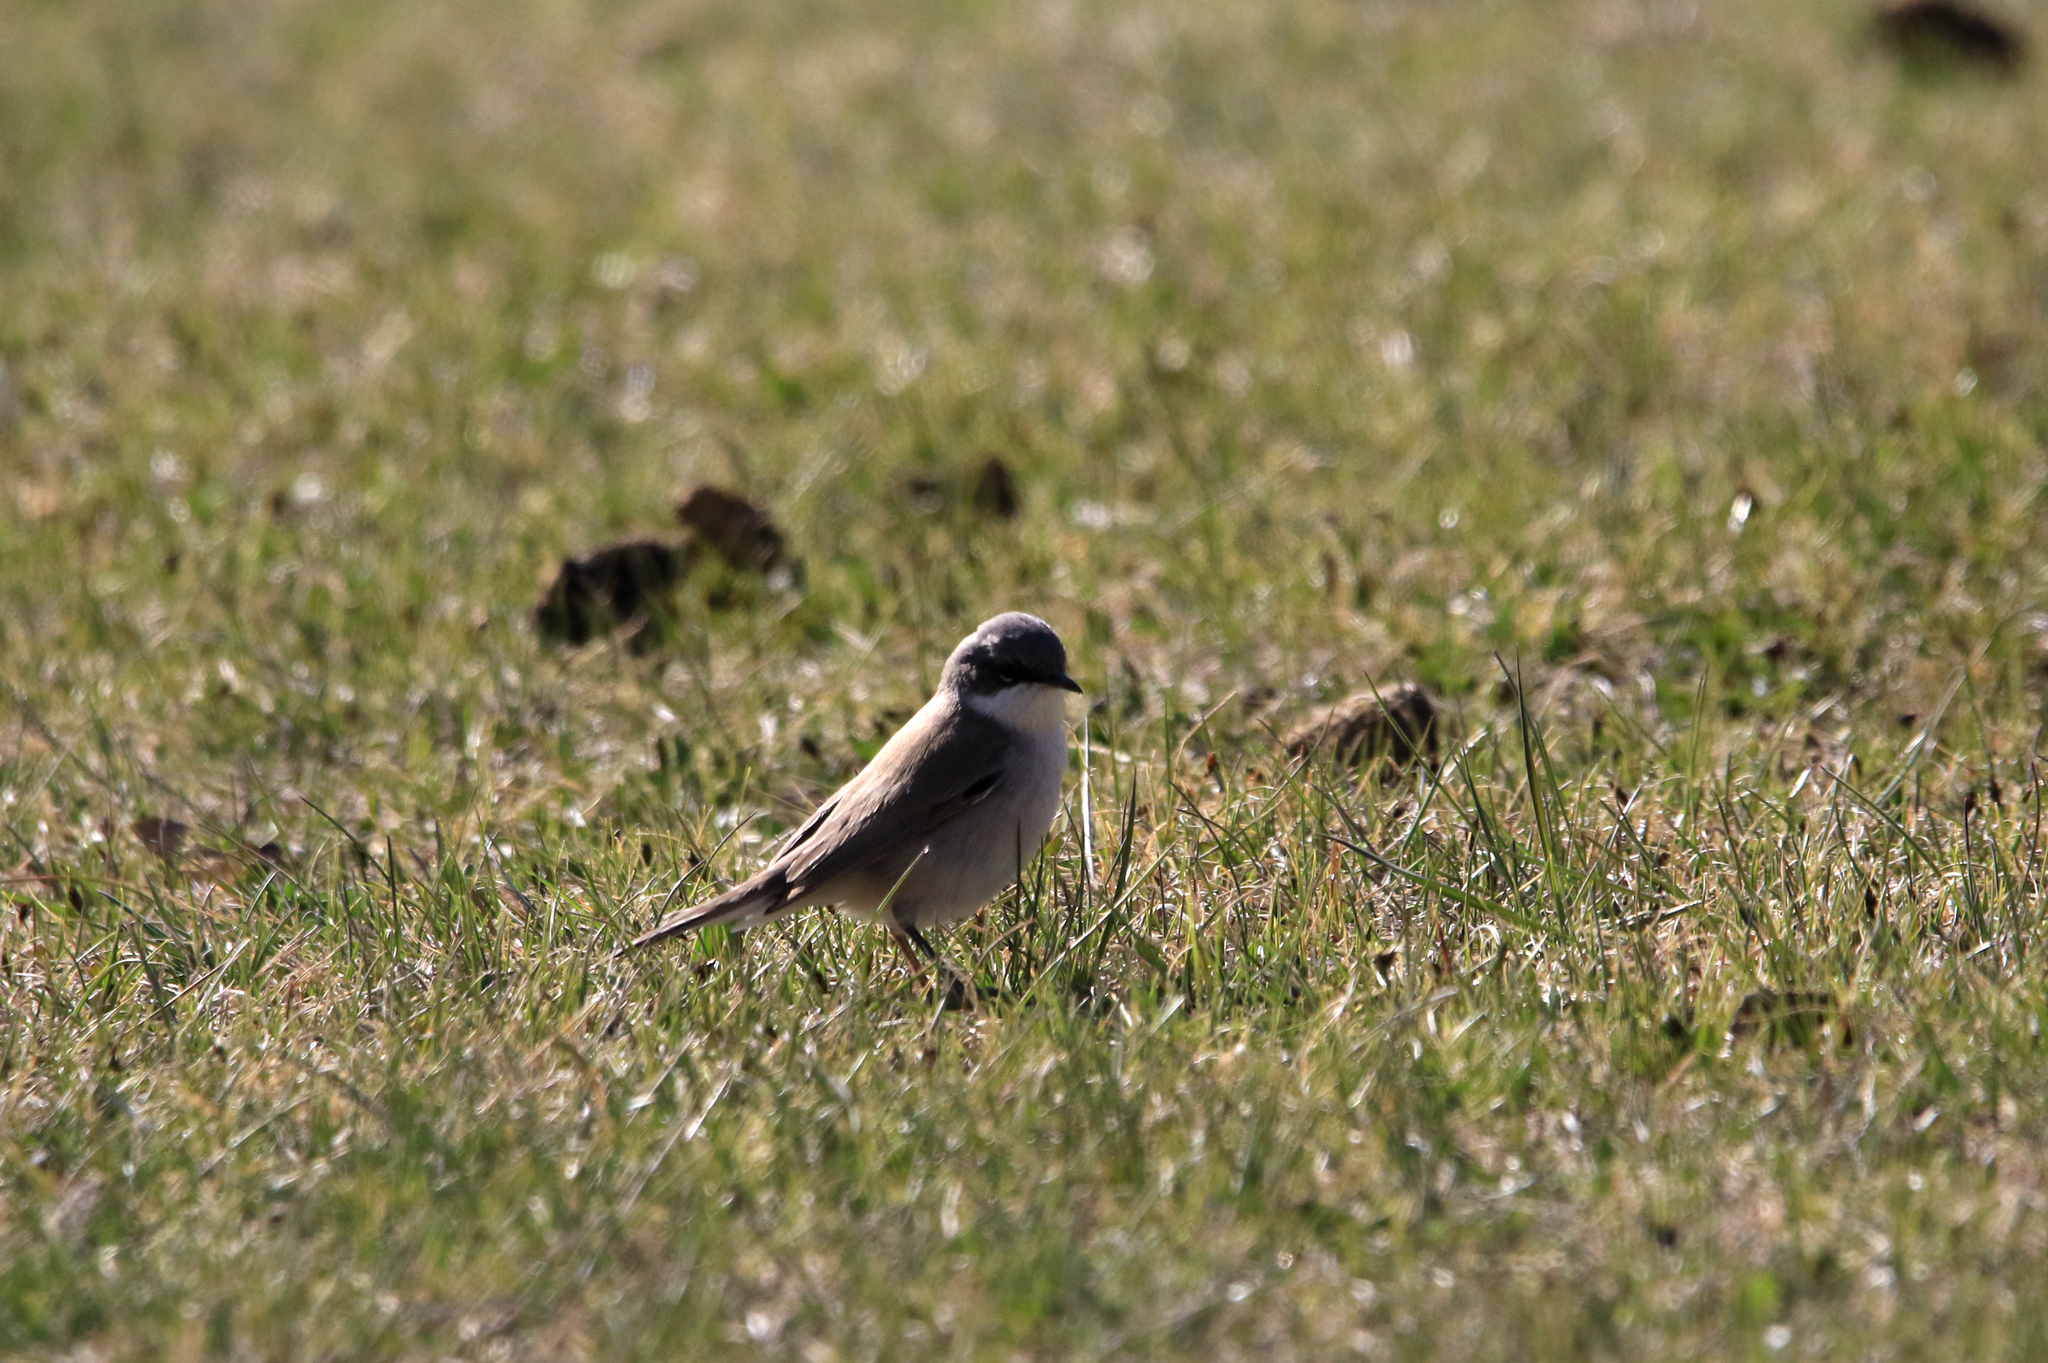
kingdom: Animalia
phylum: Chordata
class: Aves
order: Passeriformes
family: Sylviidae
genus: Sylvia
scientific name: Sylvia curruca
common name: Lesser whitethroat
